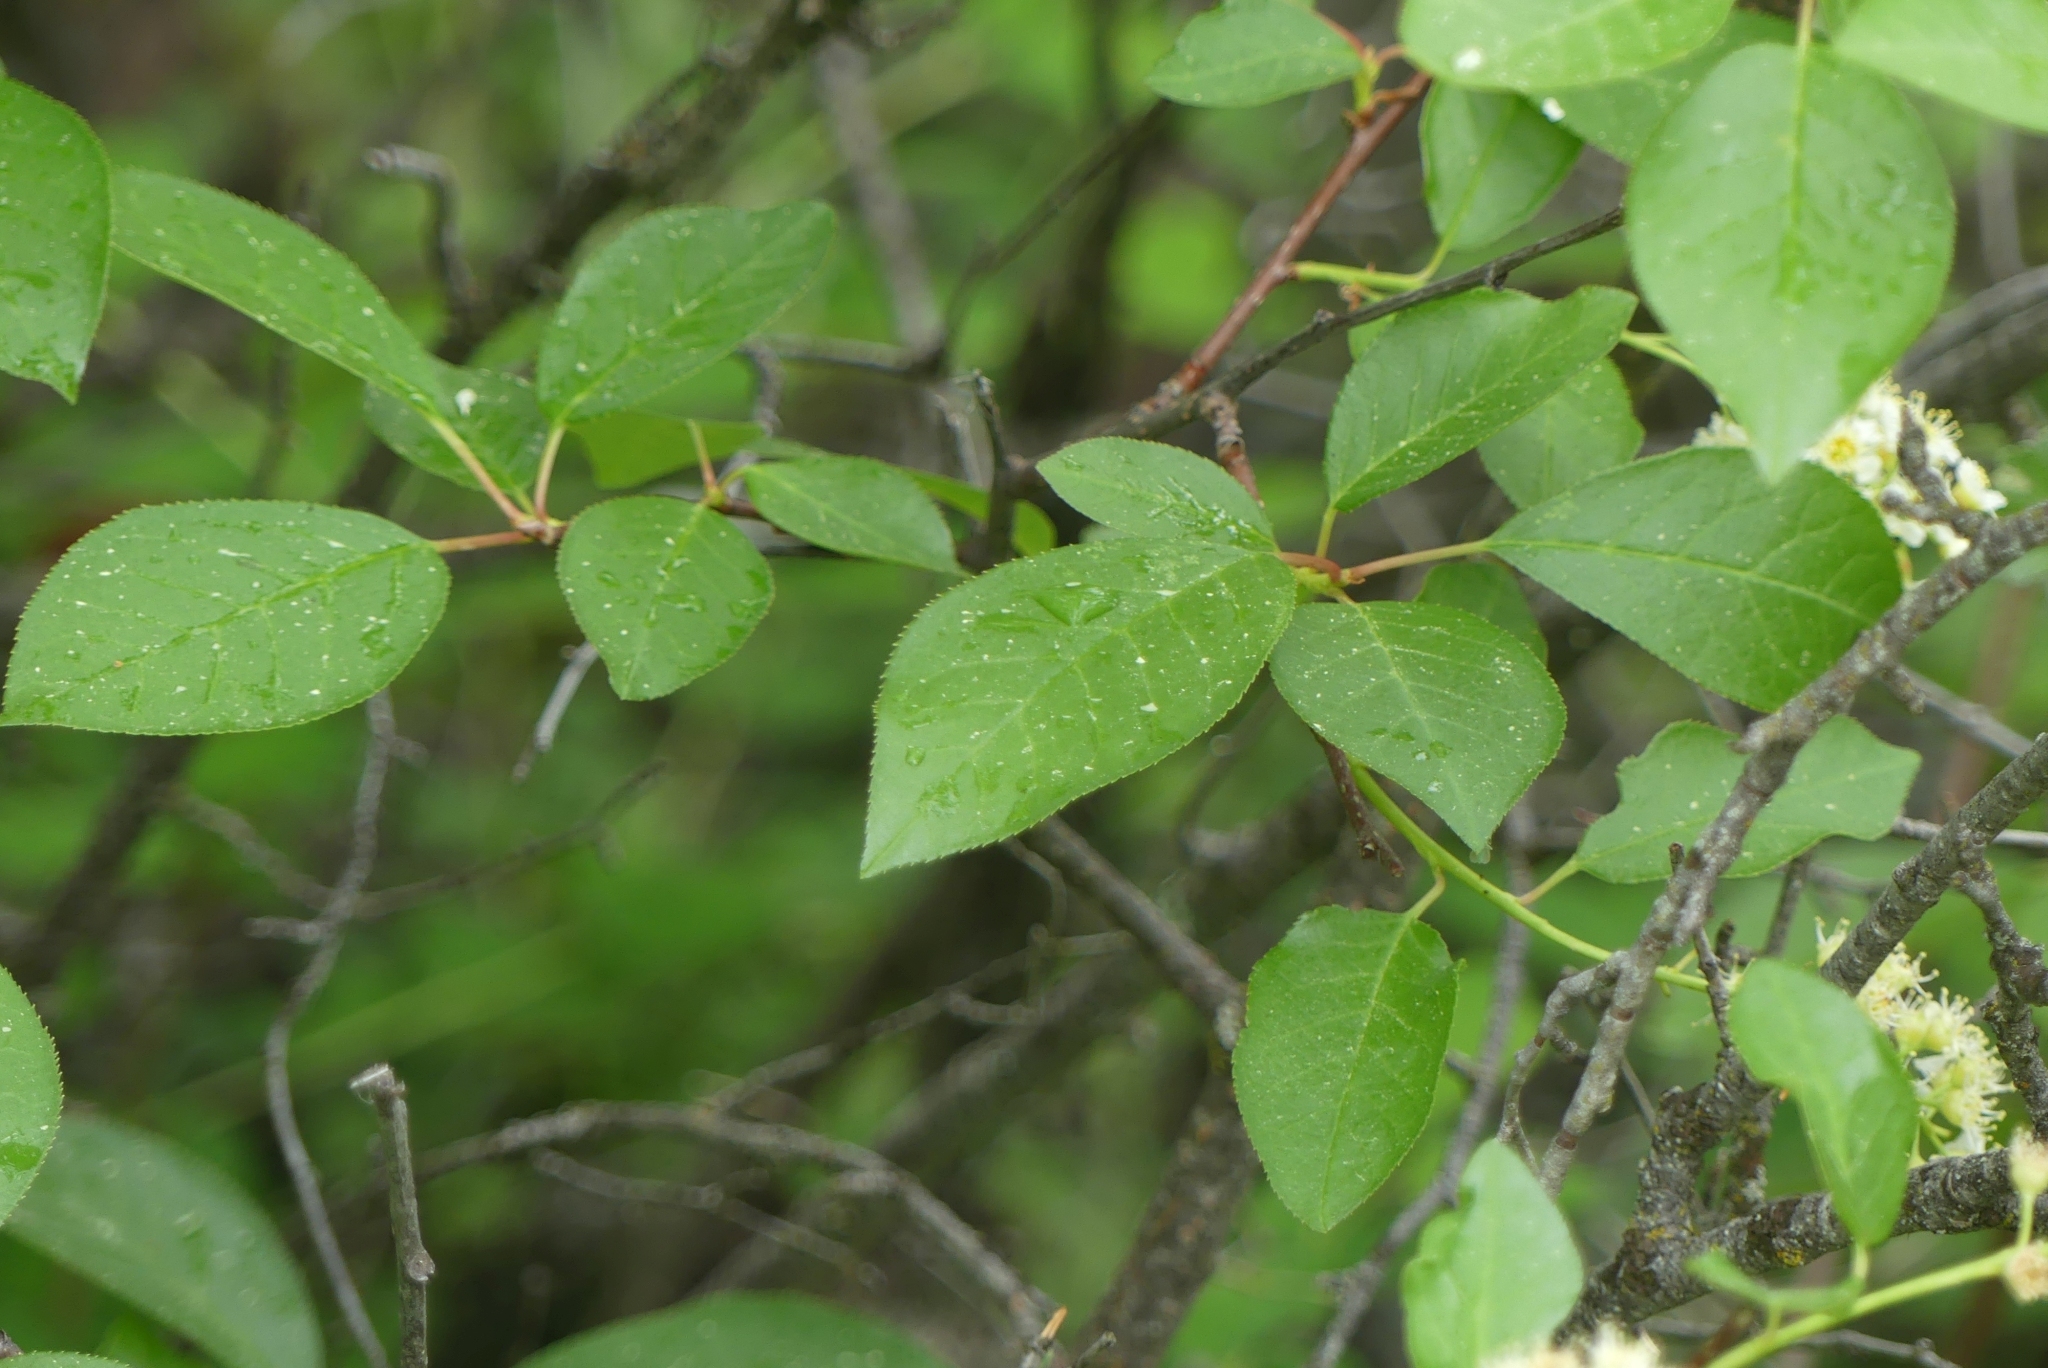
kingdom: Plantae
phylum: Tracheophyta
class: Magnoliopsida
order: Rosales
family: Rosaceae
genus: Prunus
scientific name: Prunus virginiana
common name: Chokecherry
